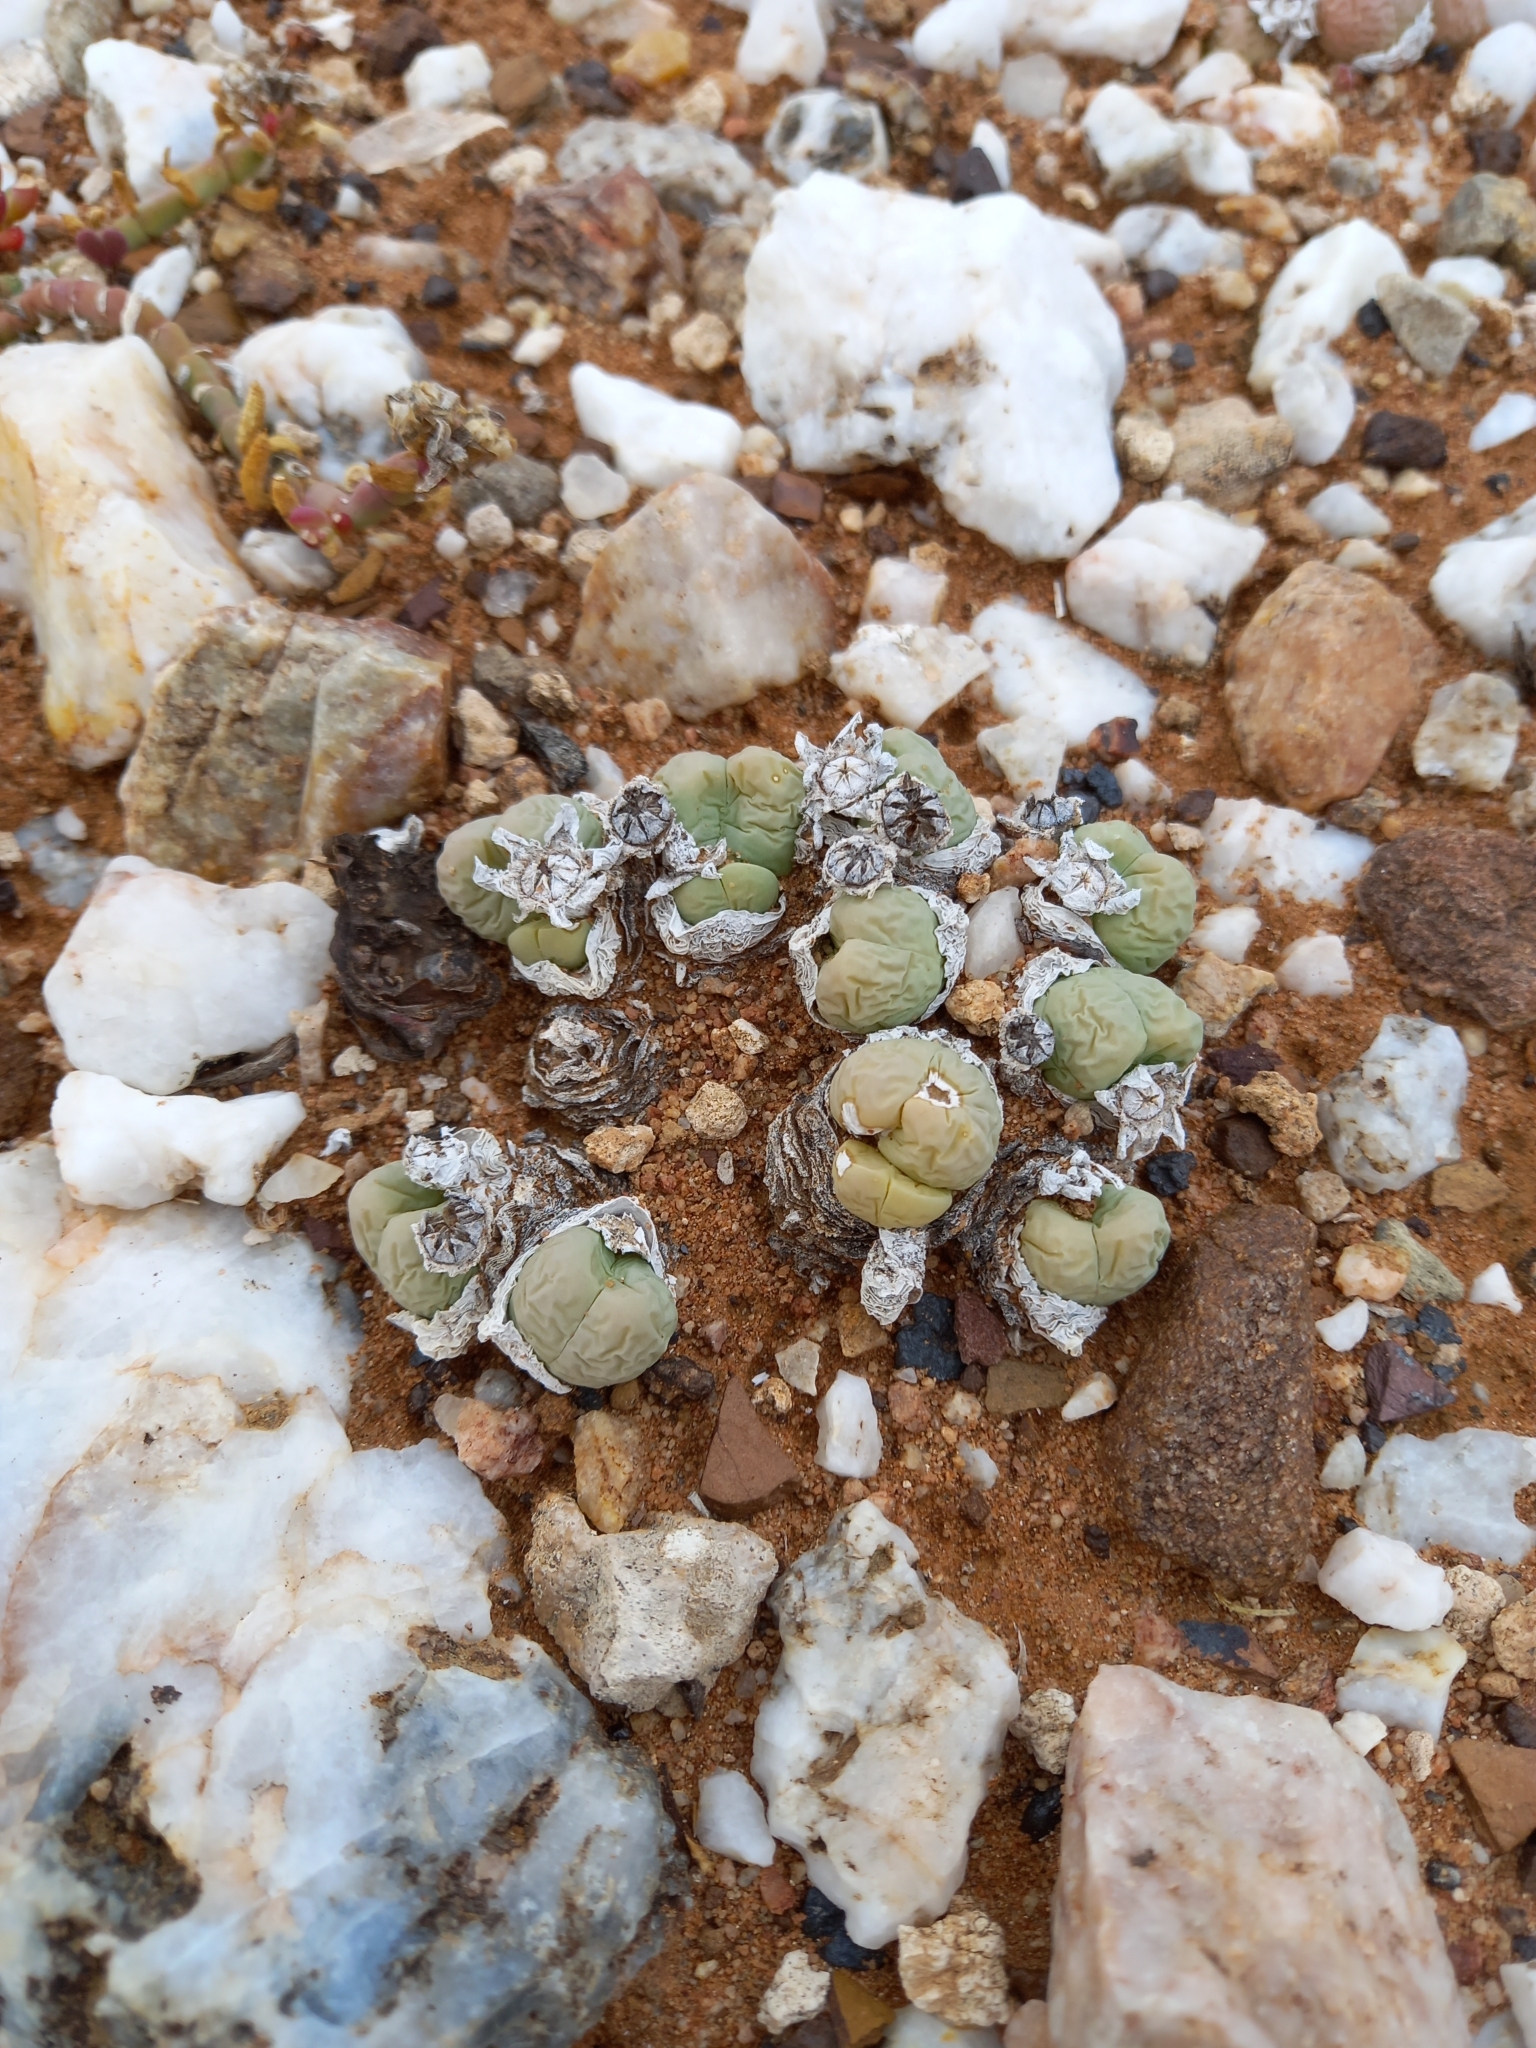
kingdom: Plantae
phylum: Tracheophyta
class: Magnoliopsida
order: Caryophyllales
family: Aizoaceae
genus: Gibbaeum
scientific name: Gibbaeum heathii
